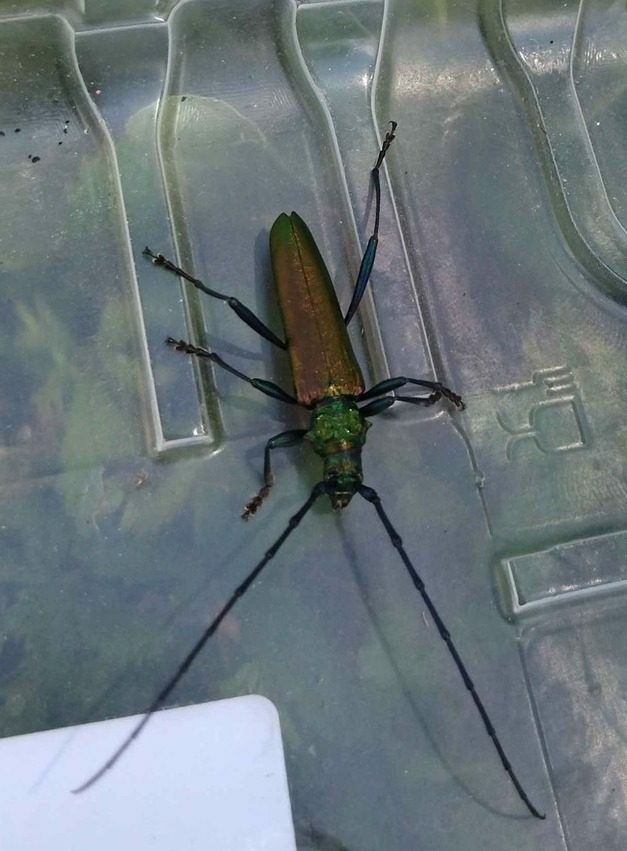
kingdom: Animalia
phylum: Arthropoda
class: Insecta
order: Coleoptera
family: Cerambycidae
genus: Aromia
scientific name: Aromia moschata
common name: Musk beetle
